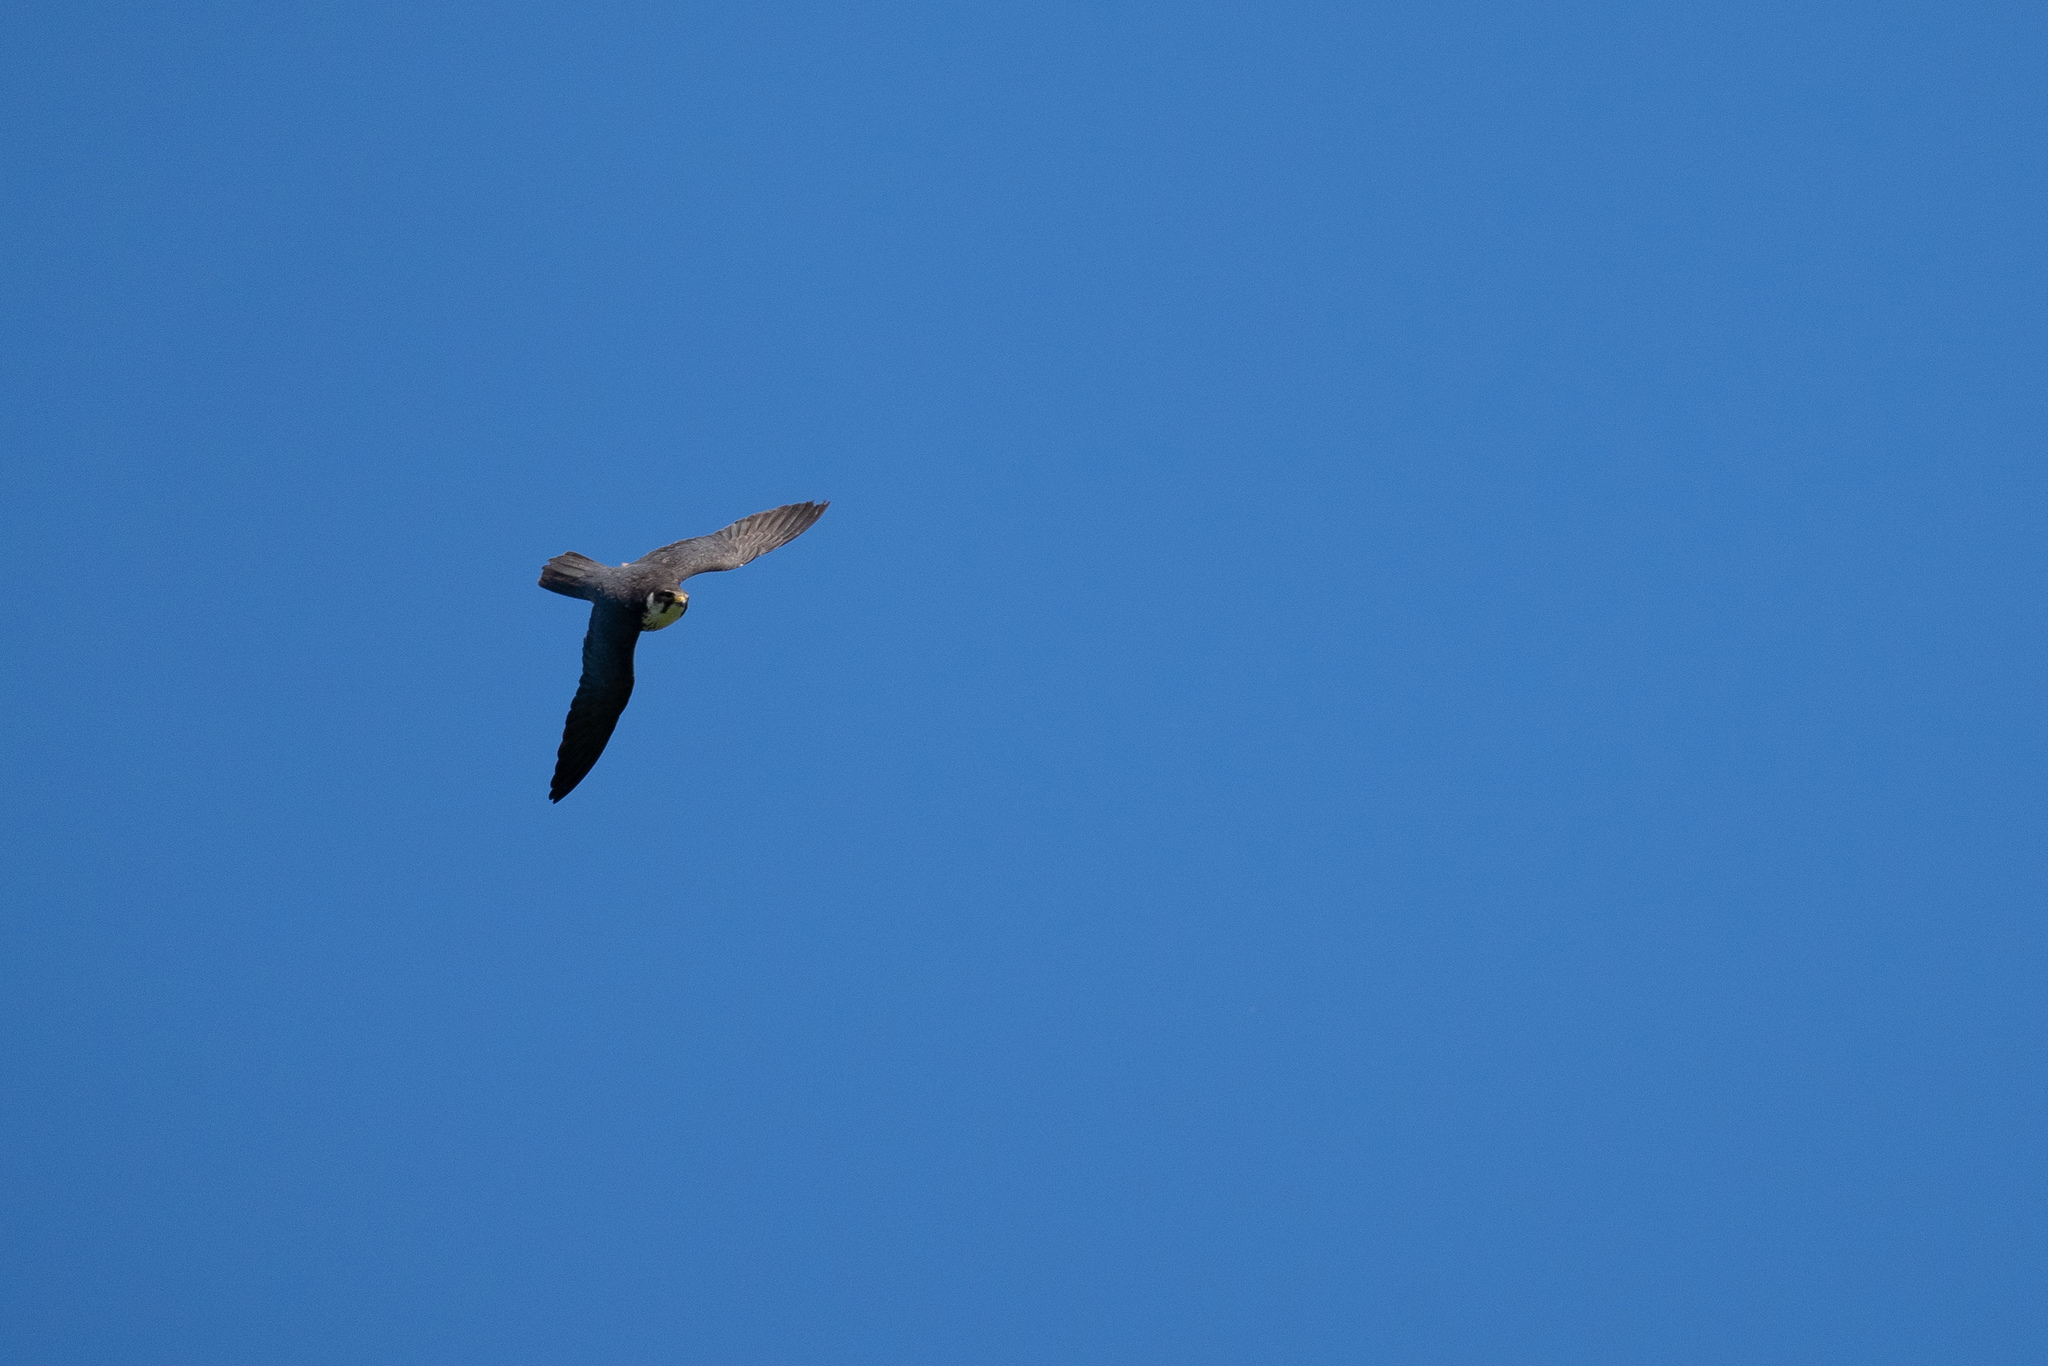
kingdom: Animalia
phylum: Chordata
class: Aves
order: Falconiformes
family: Falconidae
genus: Falco
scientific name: Falco subbuteo
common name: Eurasian hobby
